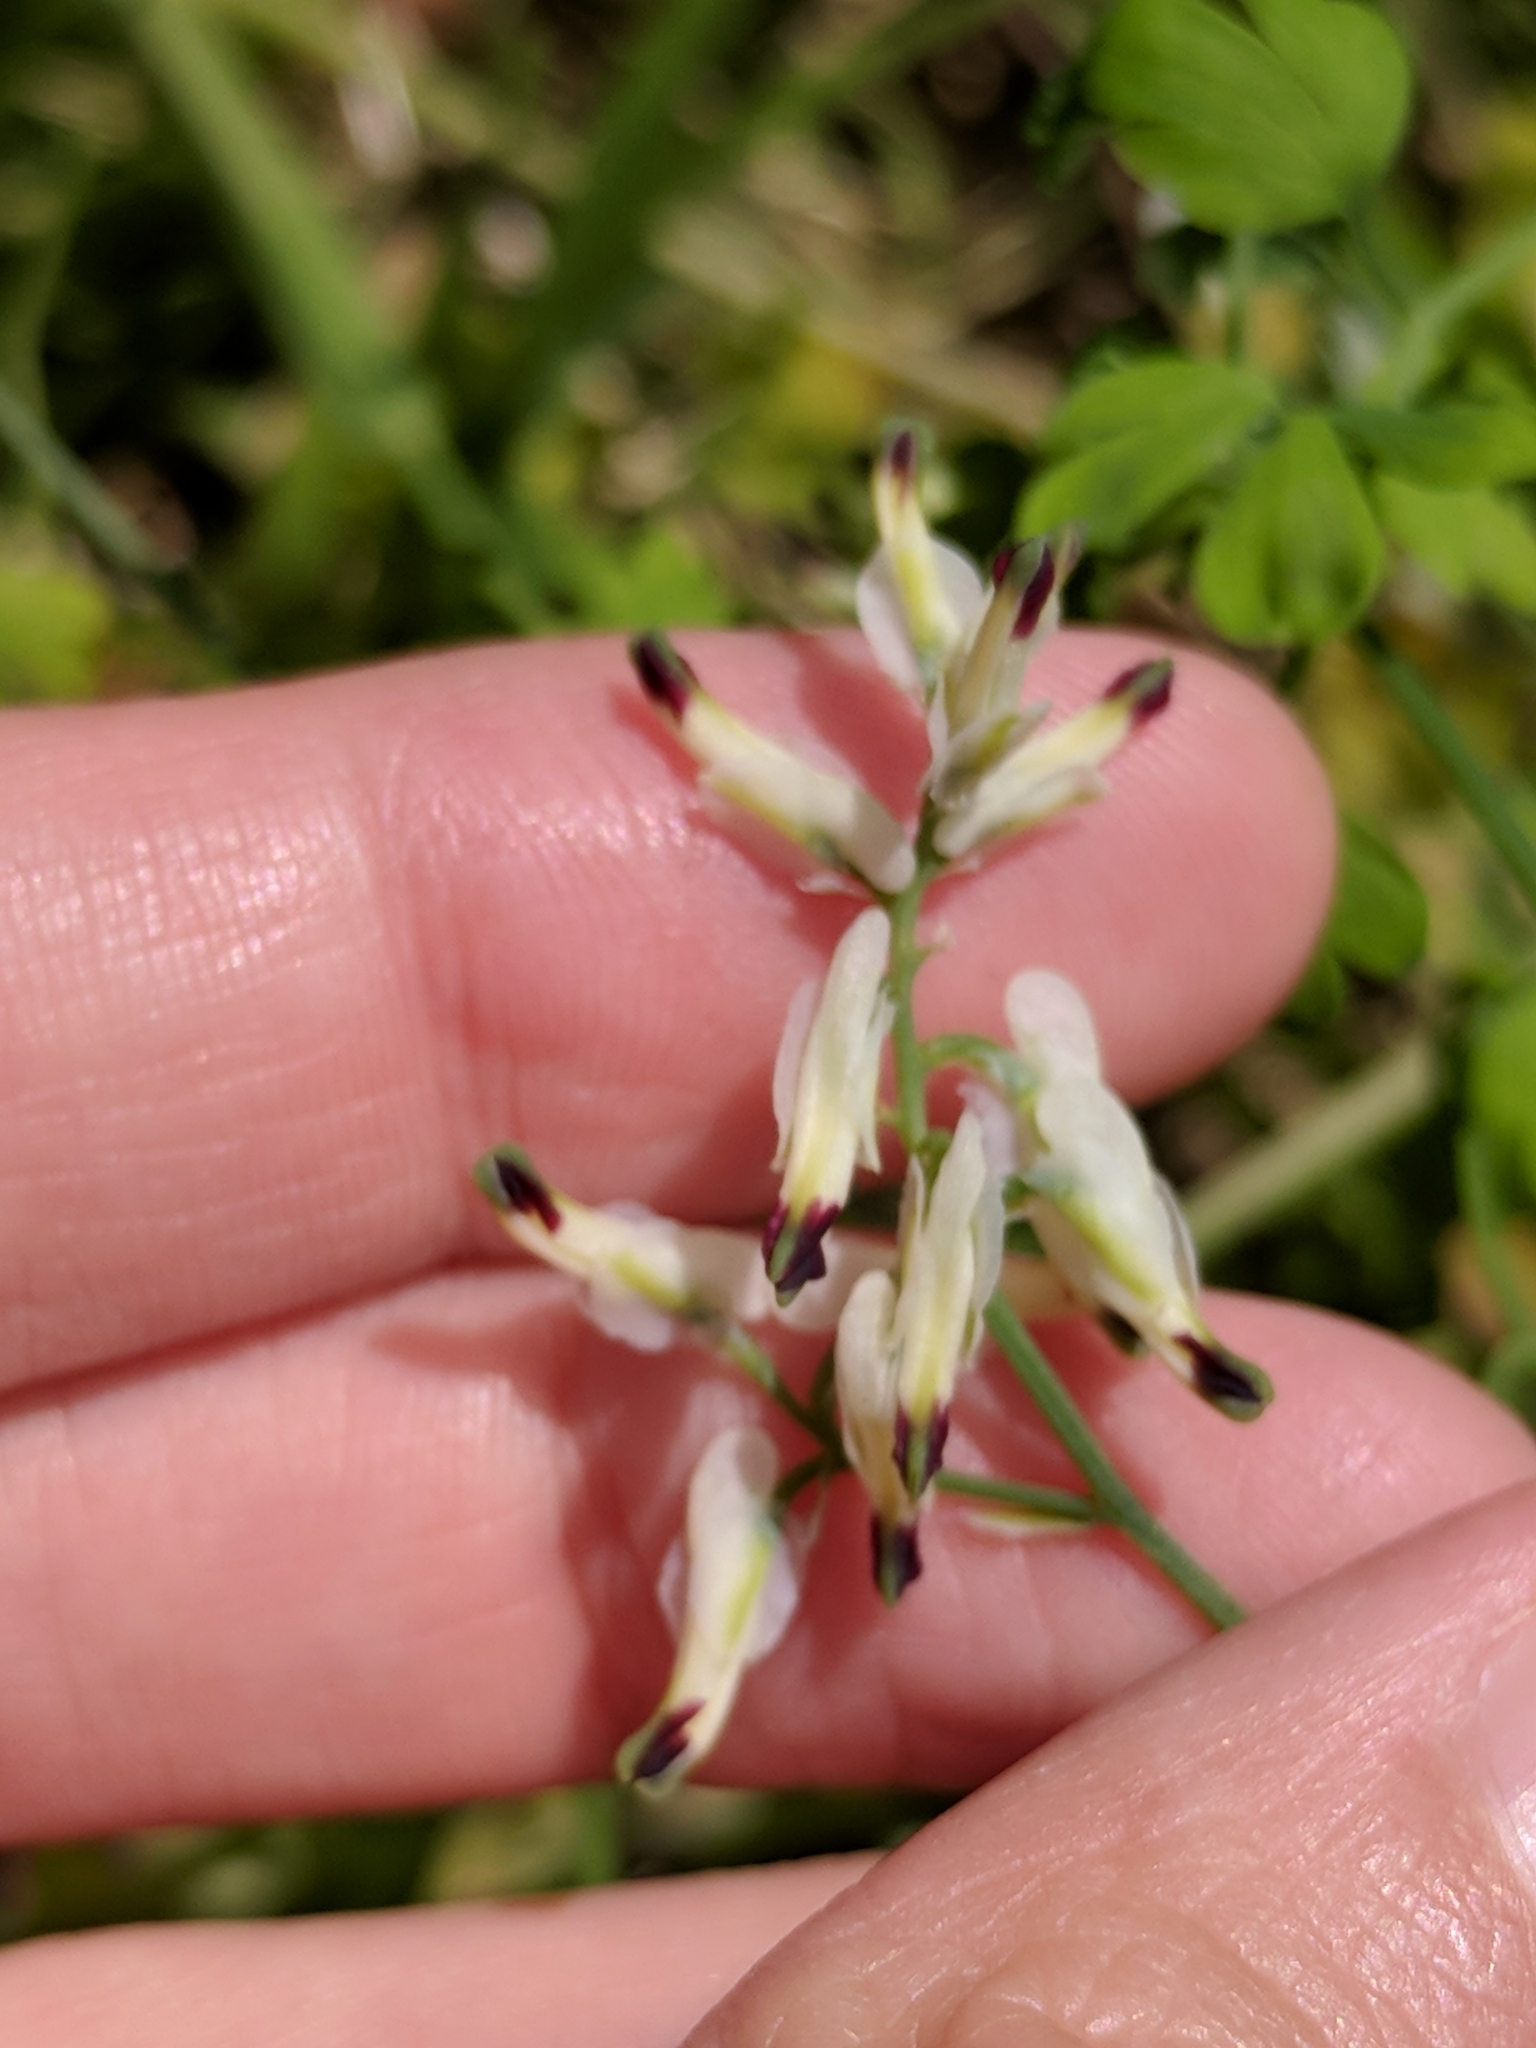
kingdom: Plantae
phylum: Tracheophyta
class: Magnoliopsida
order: Ranunculales
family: Papaveraceae
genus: Fumaria
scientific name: Fumaria capreolata
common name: White ramping-fumitory
